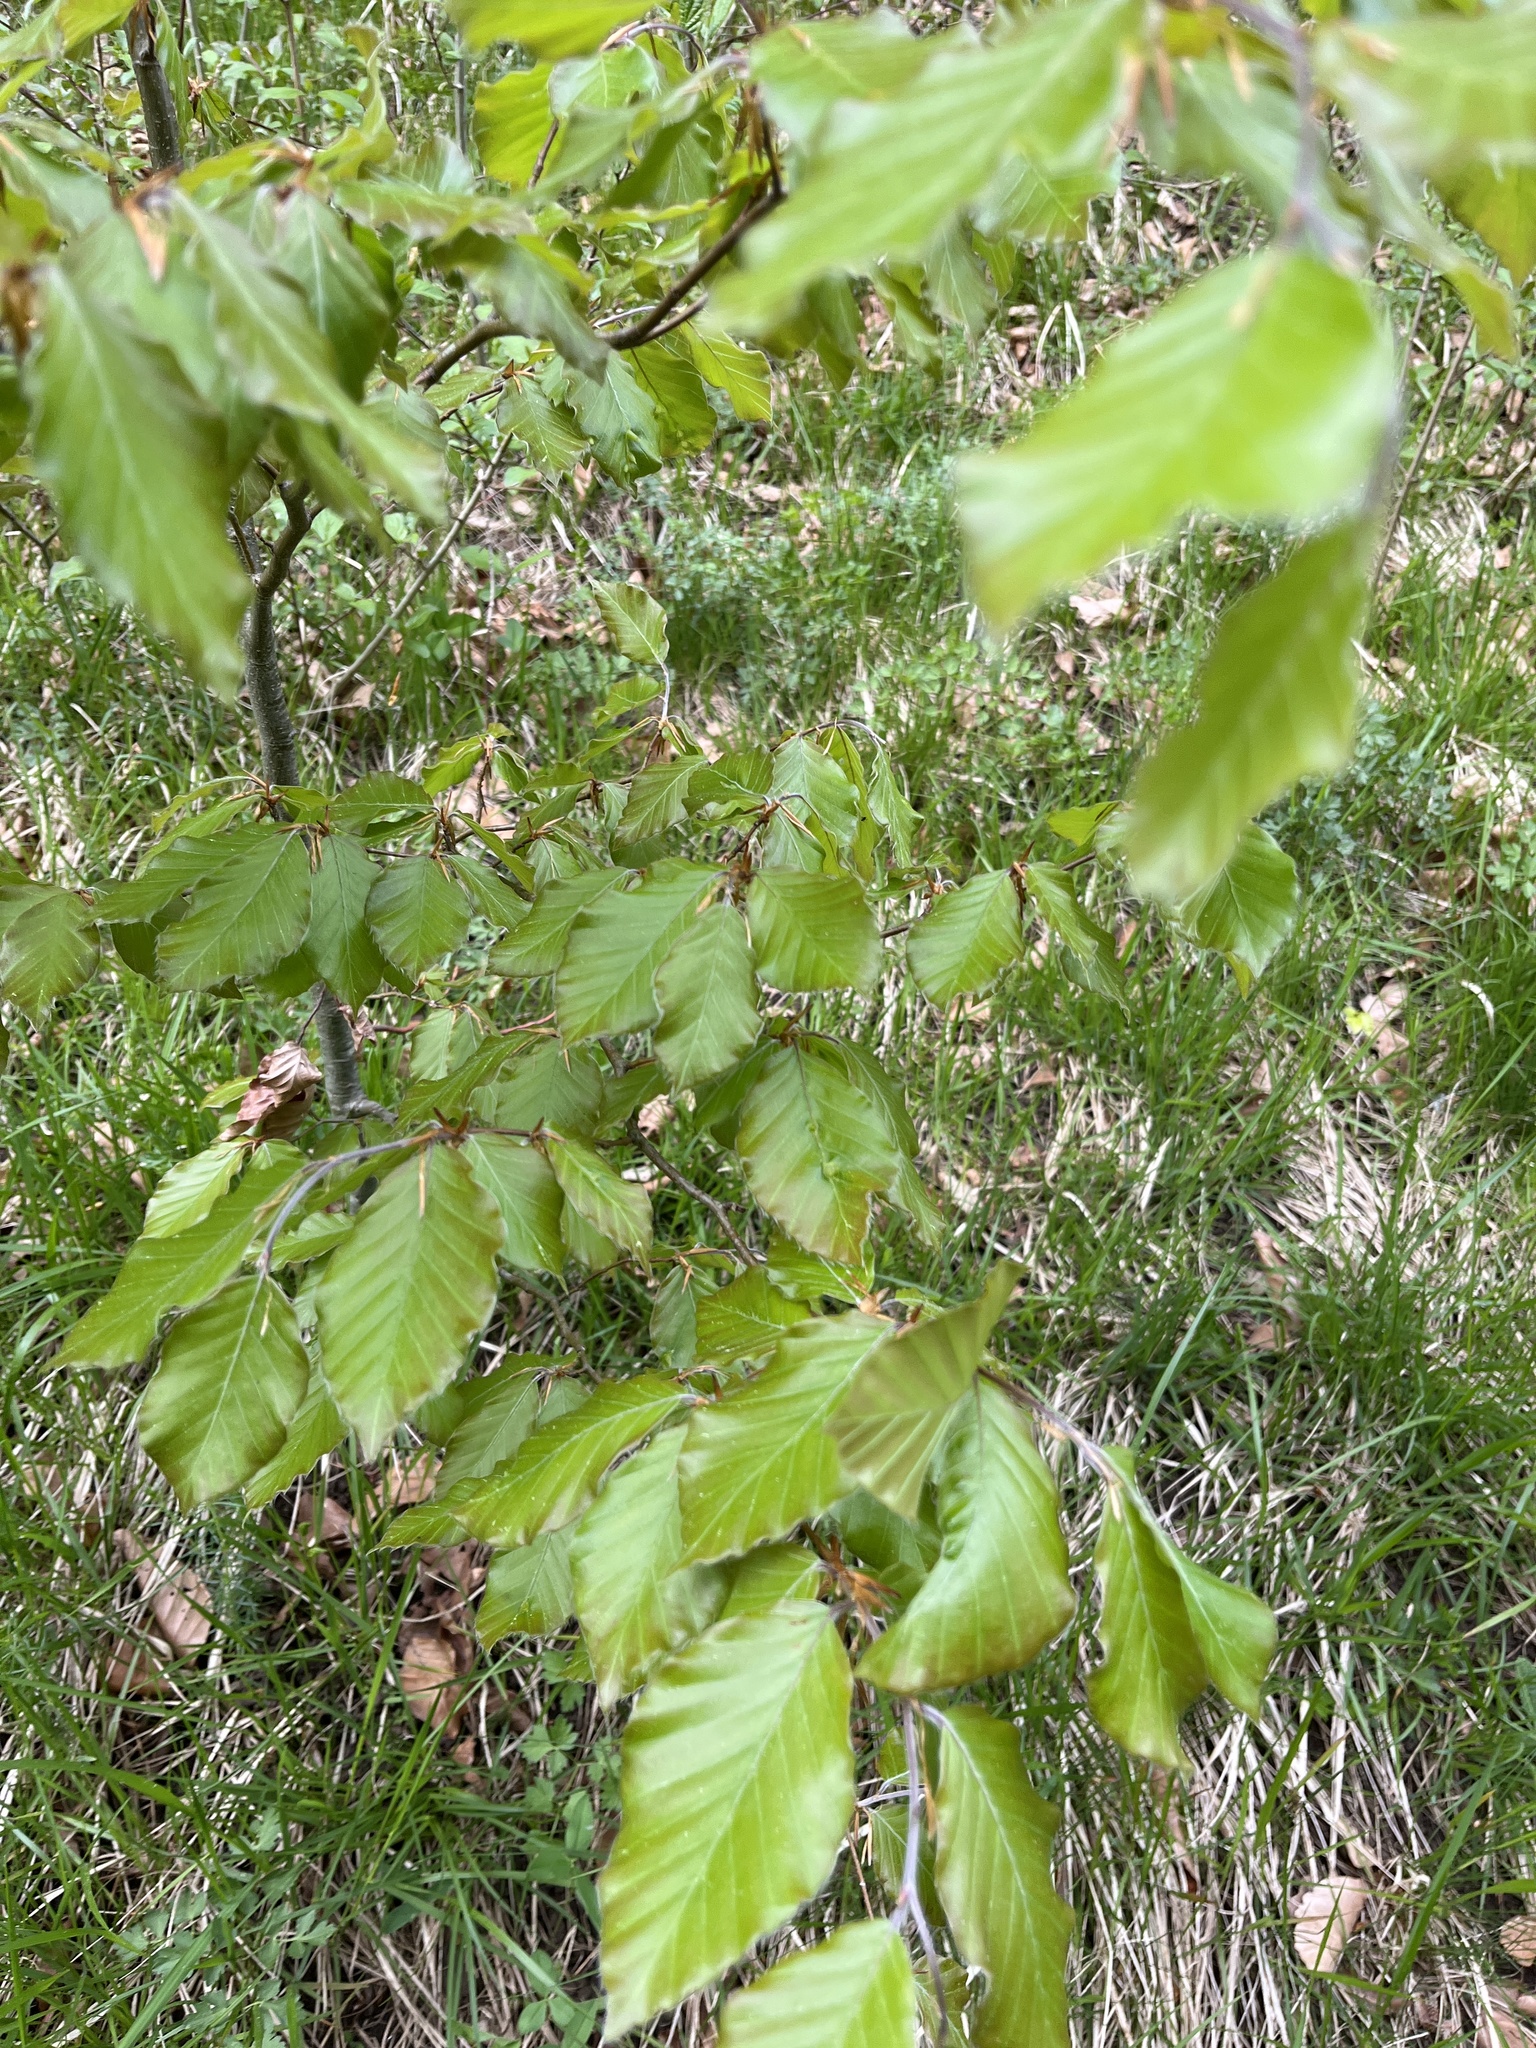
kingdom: Plantae
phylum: Tracheophyta
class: Magnoliopsida
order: Fagales
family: Fagaceae
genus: Fagus
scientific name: Fagus sylvatica
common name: Beech
